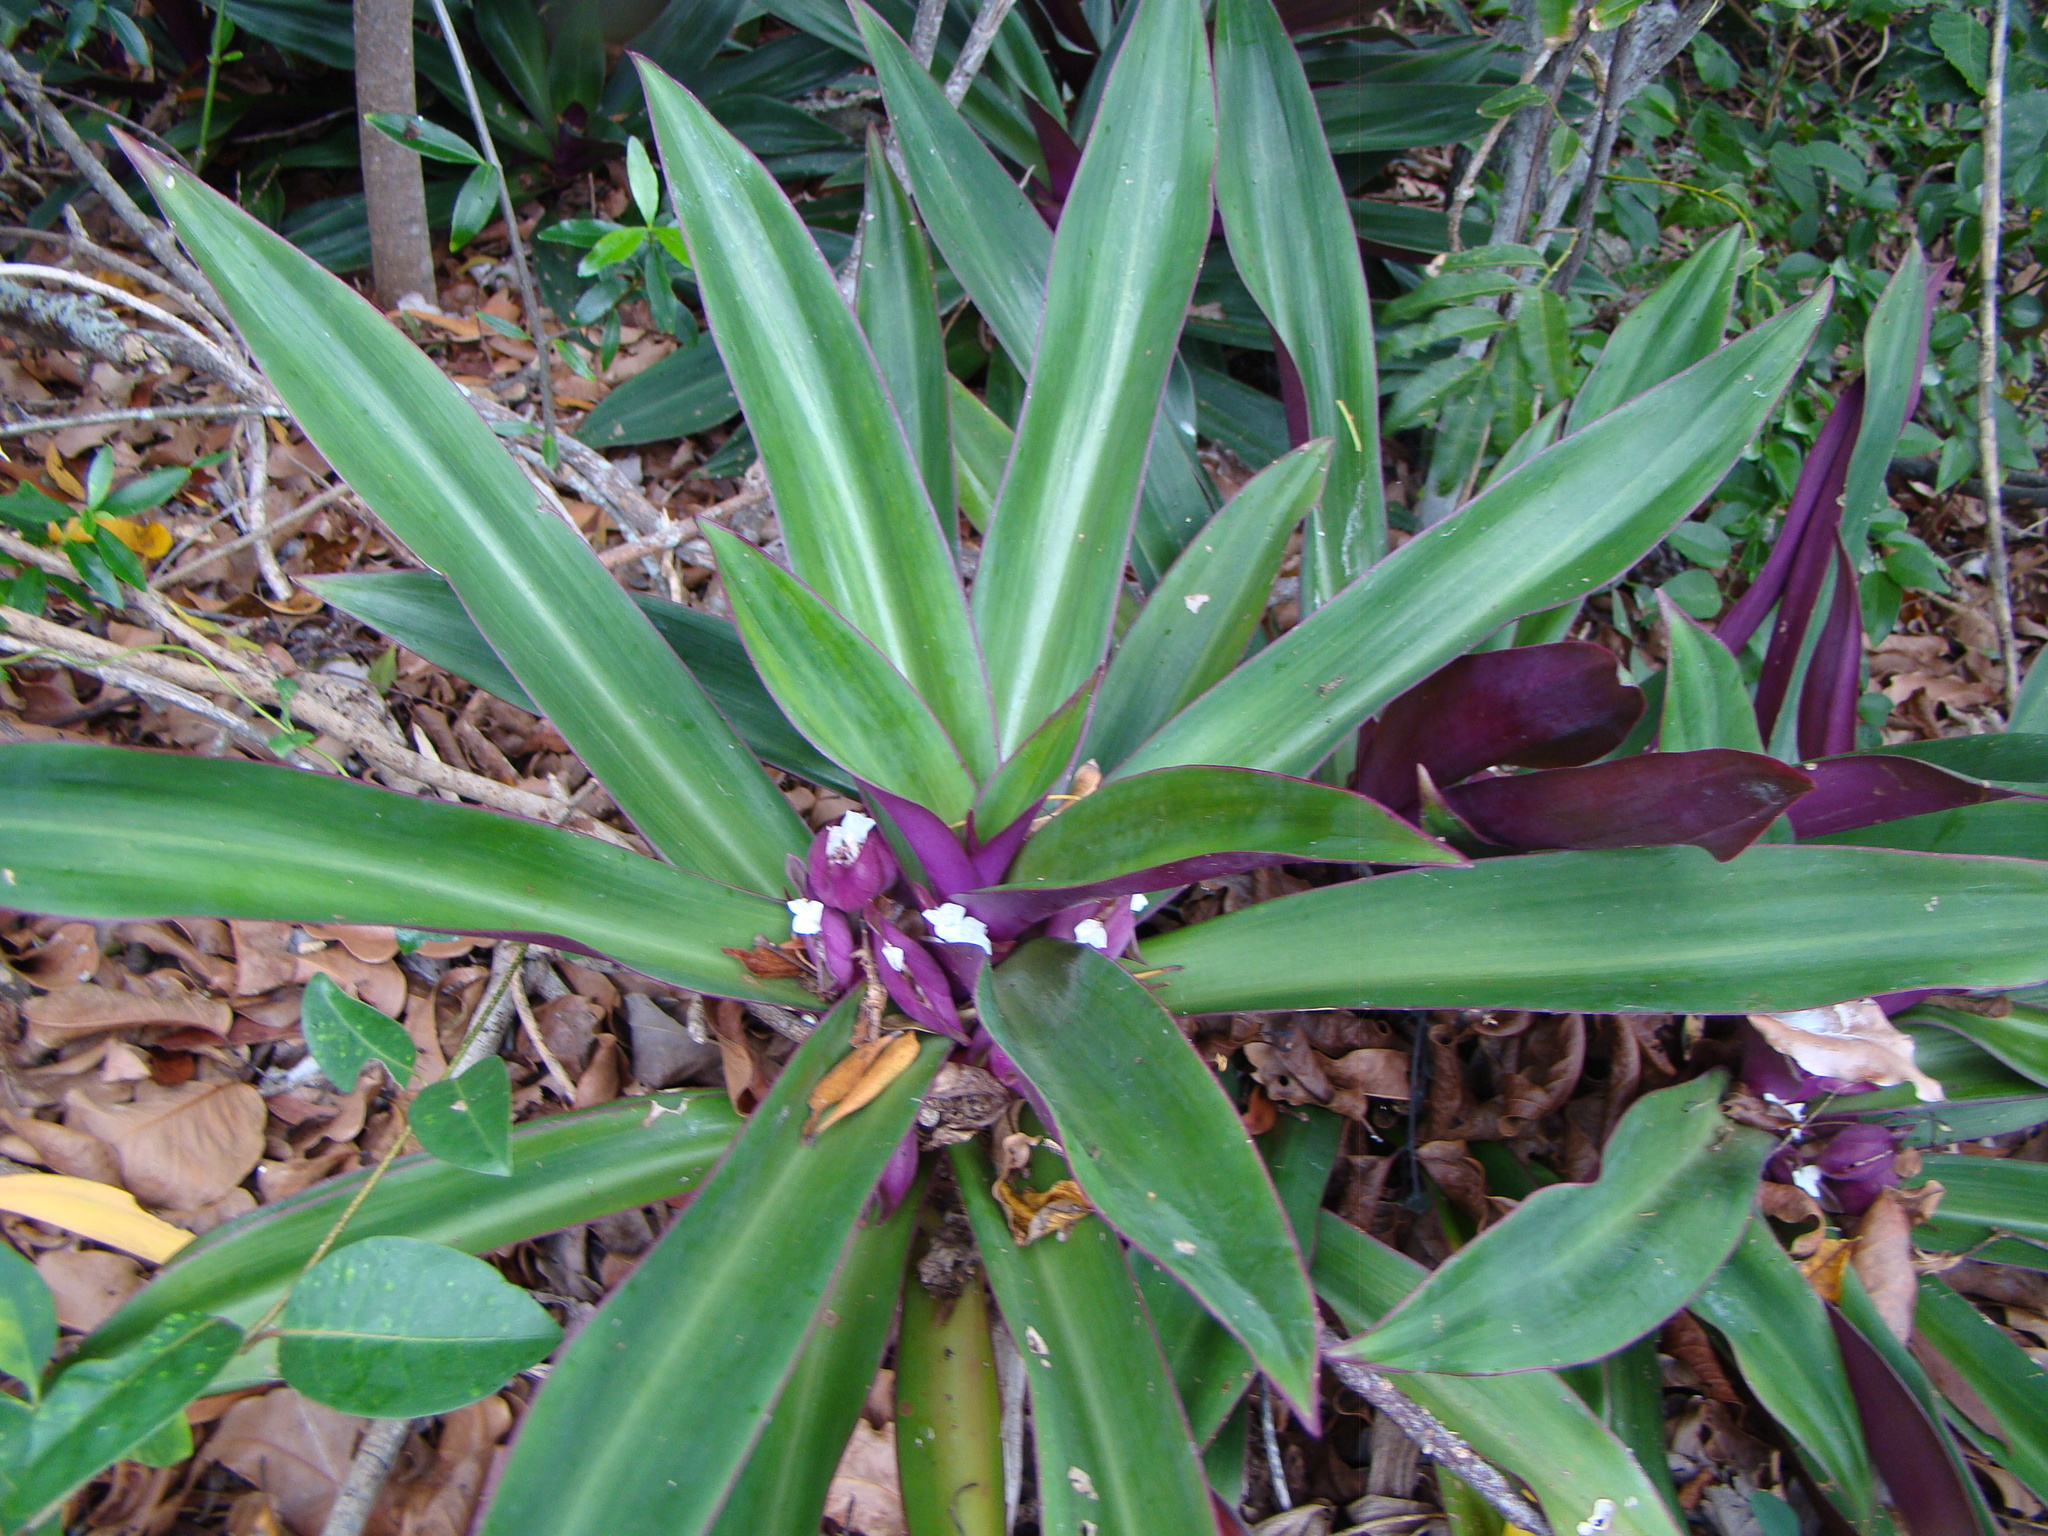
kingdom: Plantae
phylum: Tracheophyta
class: Liliopsida
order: Commelinales
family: Commelinaceae
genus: Tradescantia
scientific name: Tradescantia spathacea
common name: Boatlily
